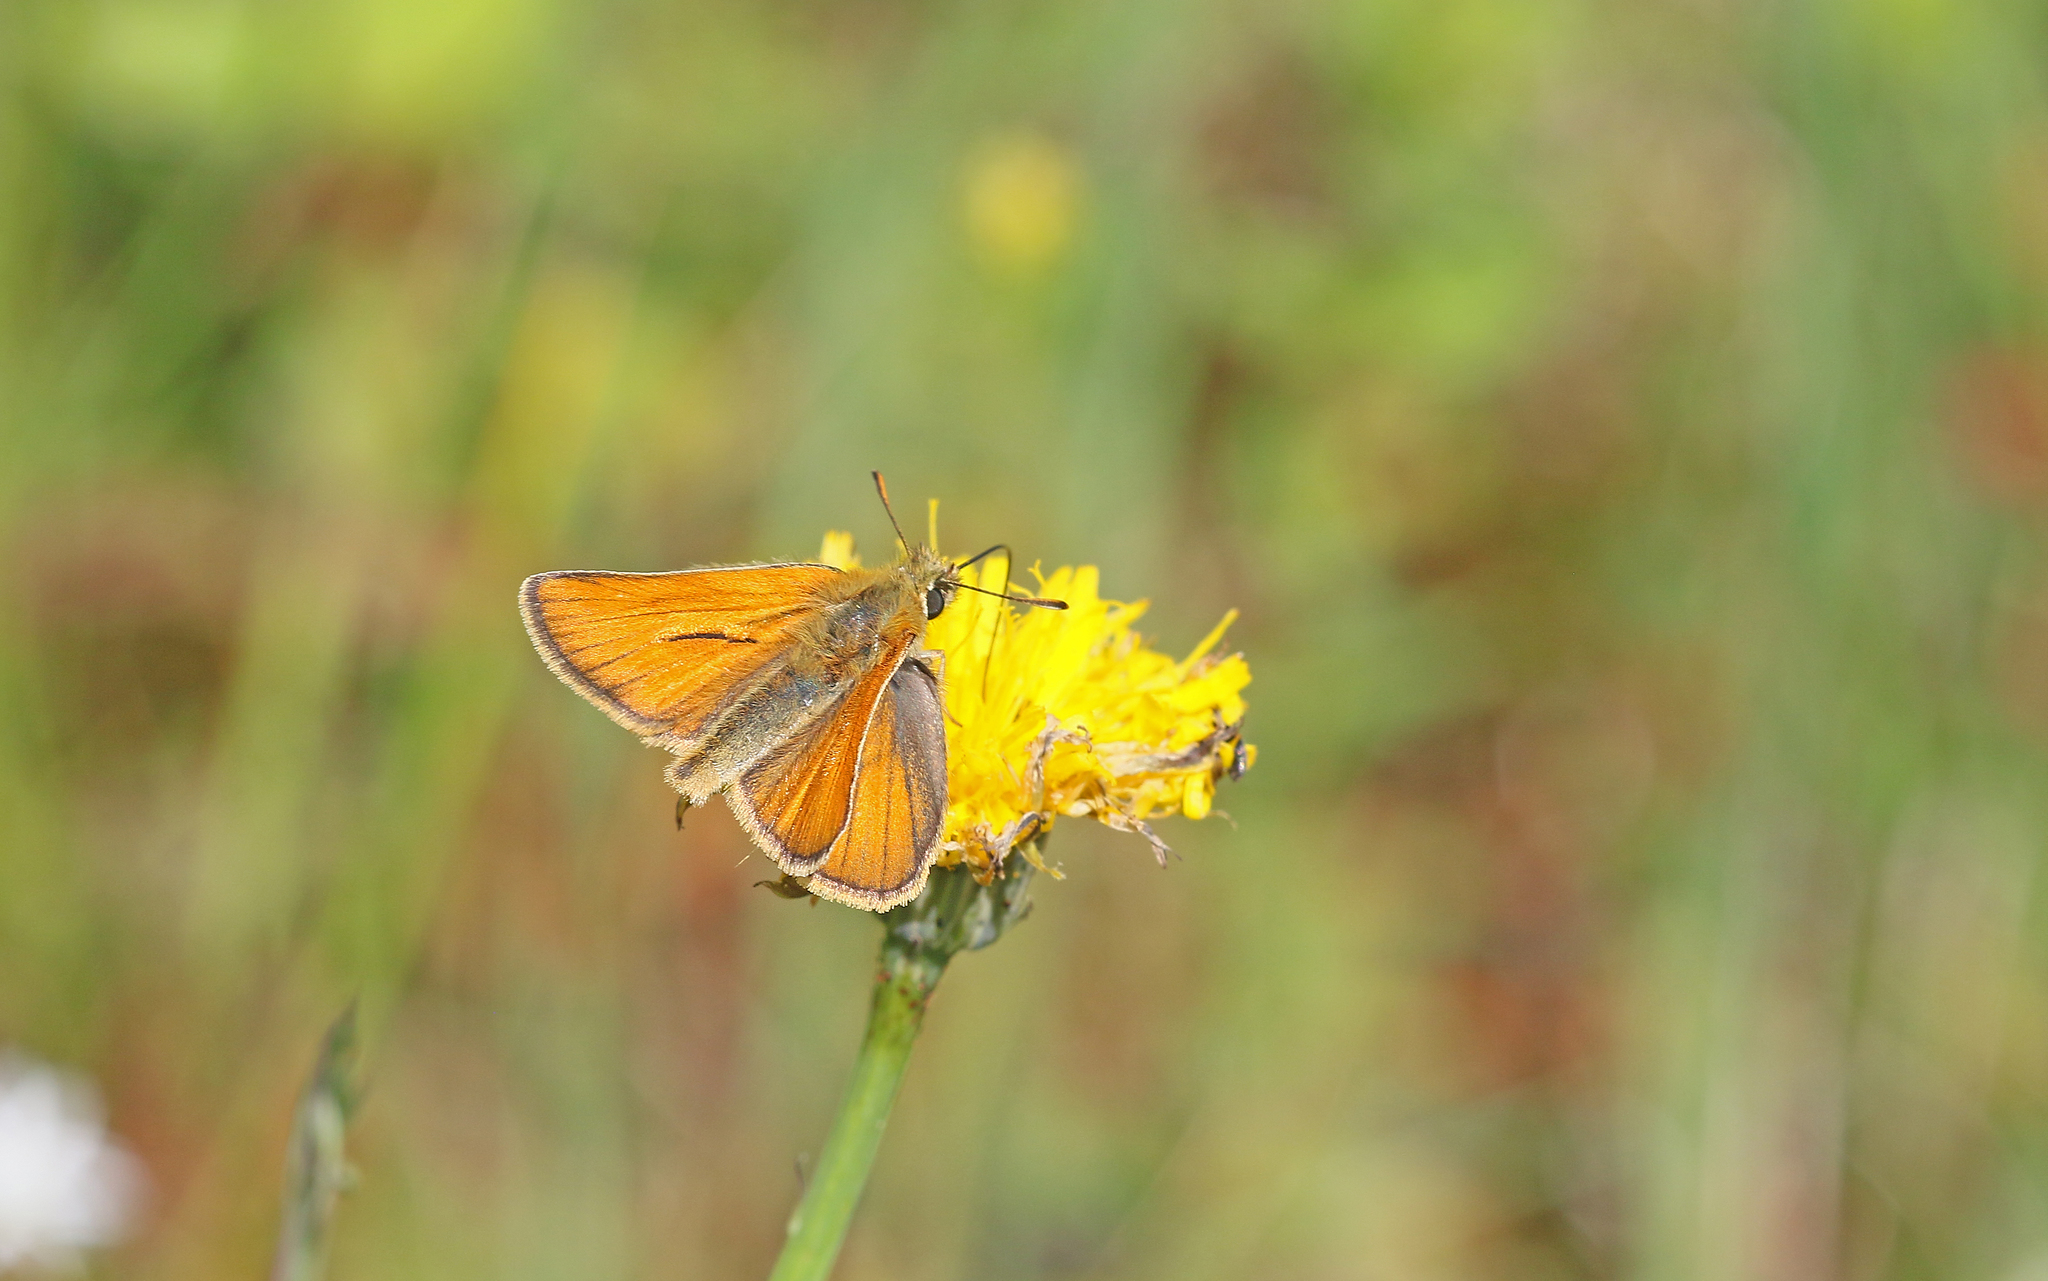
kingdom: Animalia
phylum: Arthropoda
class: Insecta
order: Lepidoptera
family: Hesperiidae
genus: Thymelicus
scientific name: Thymelicus sylvestris
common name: Small skipper
